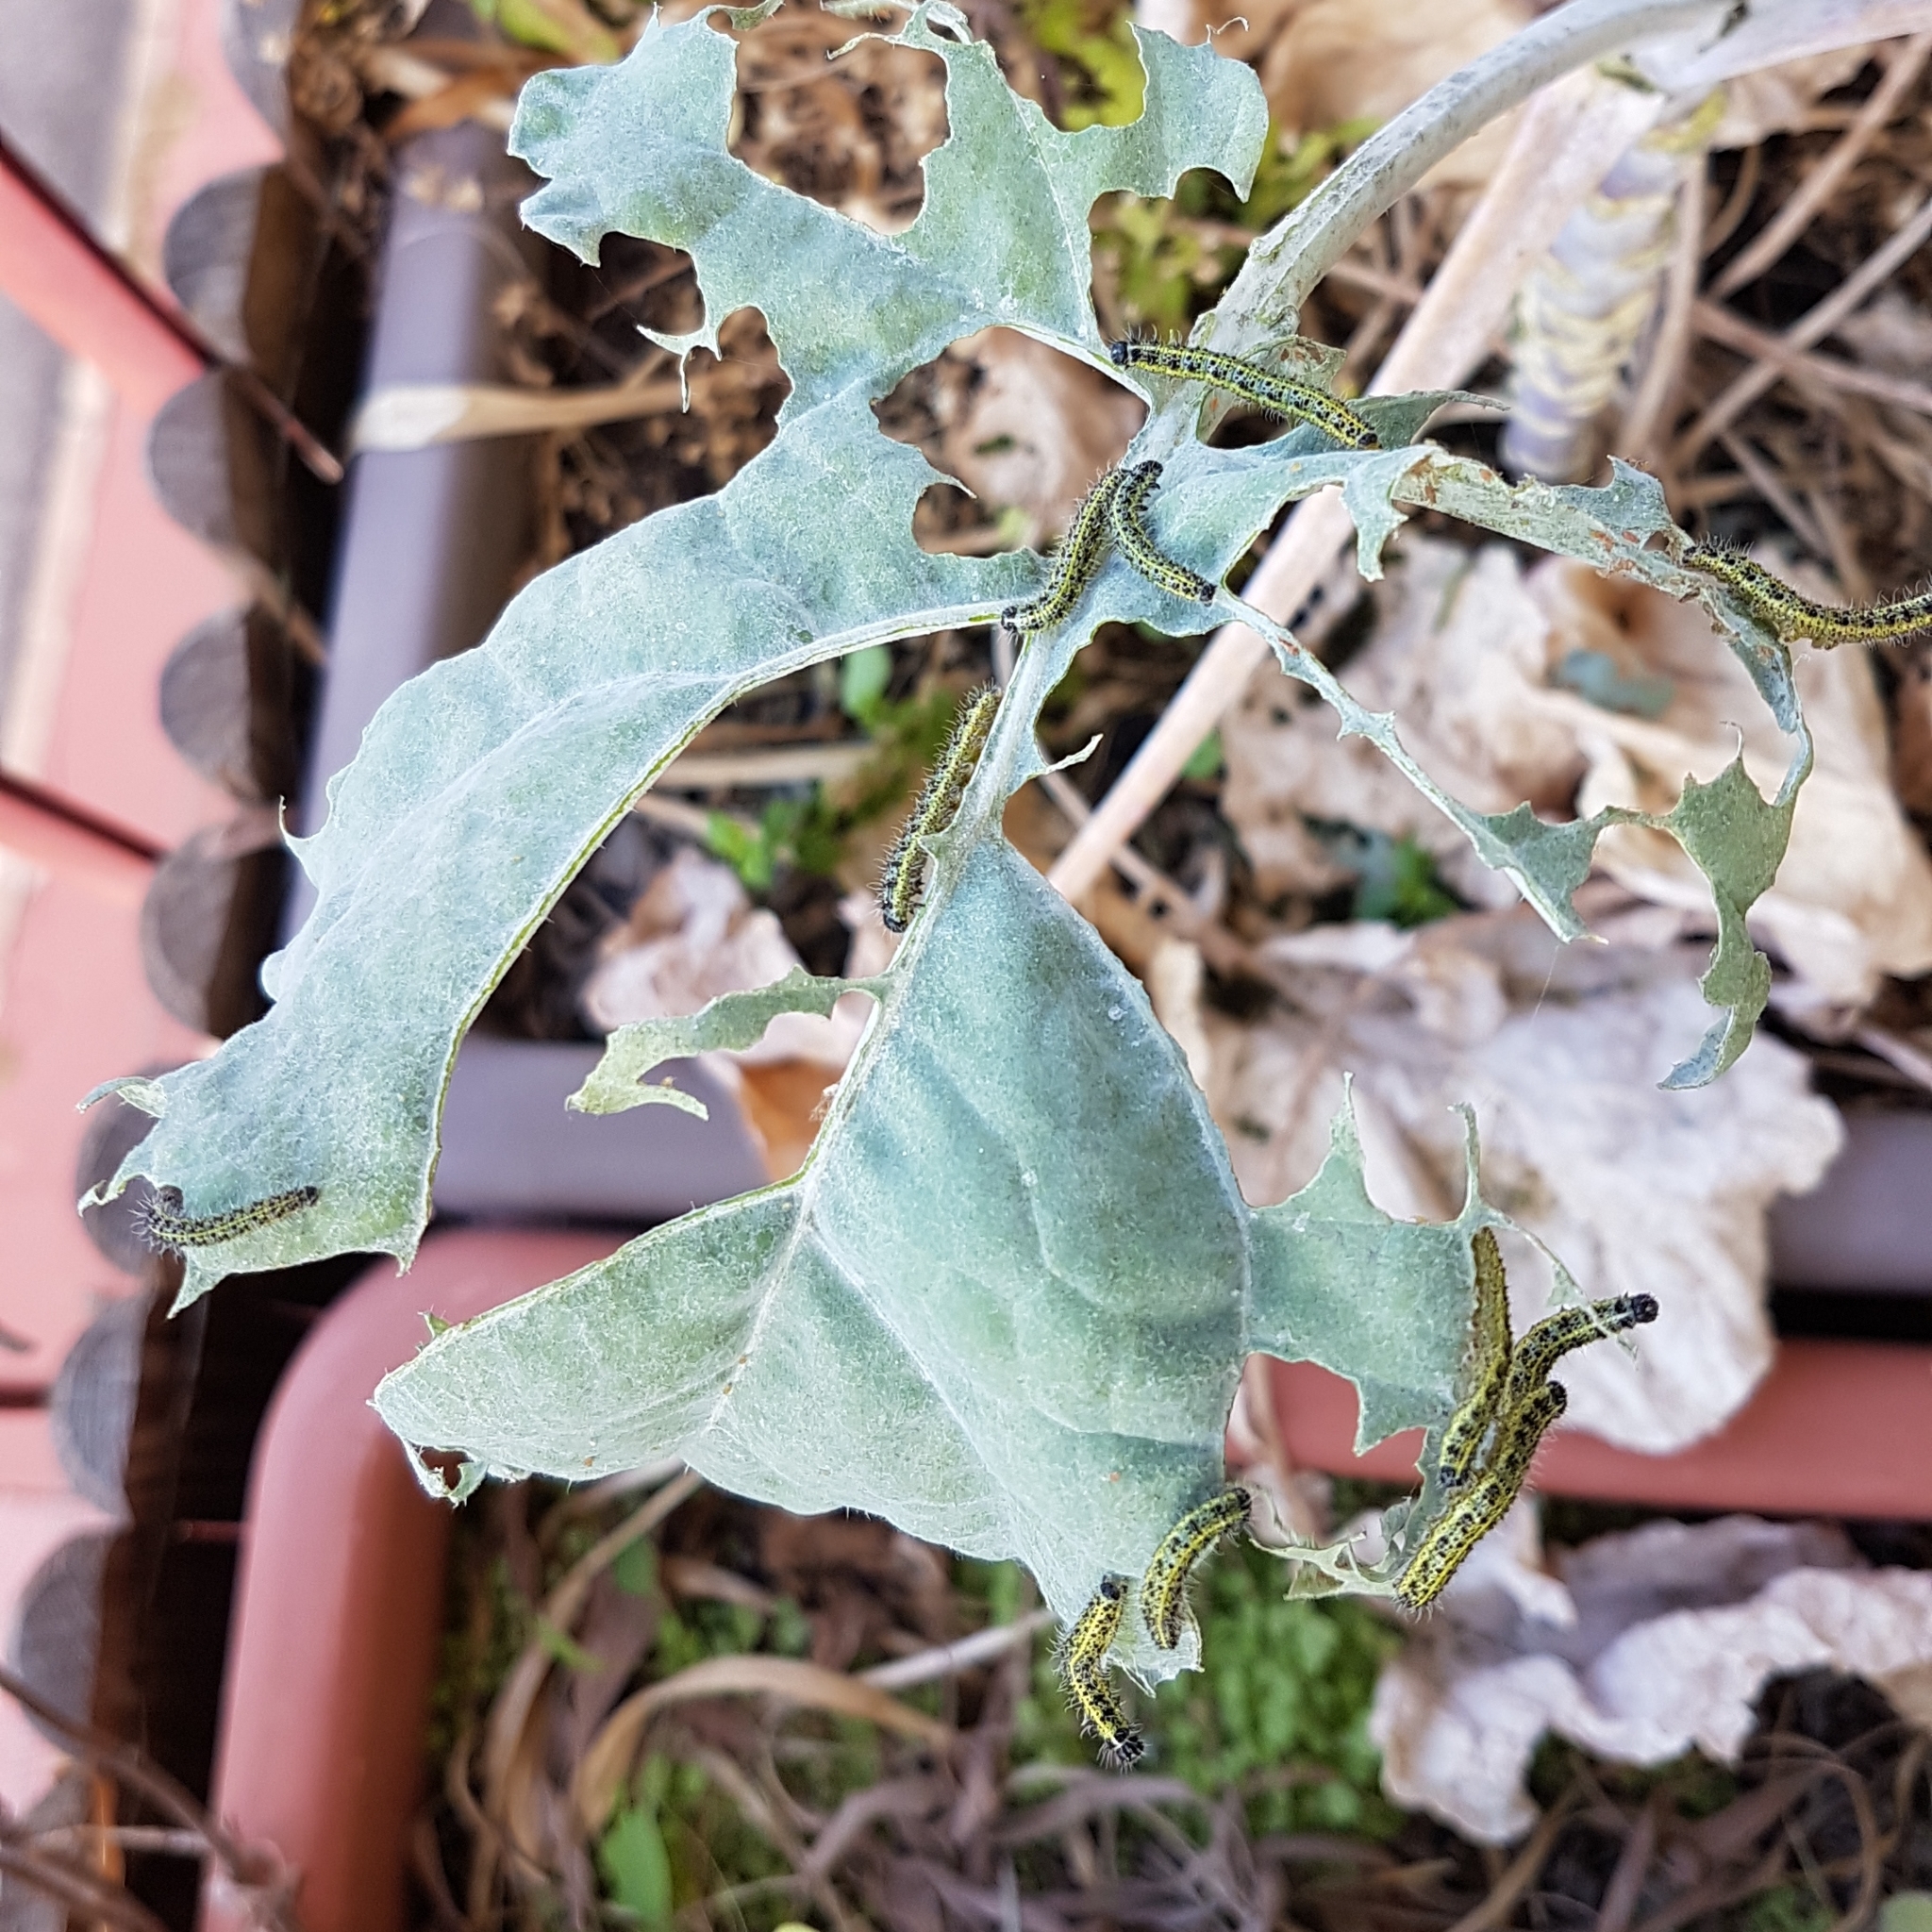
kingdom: Animalia
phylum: Arthropoda
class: Insecta
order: Lepidoptera
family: Pieridae
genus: Pieris
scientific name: Pieris brassicae
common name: Large white
